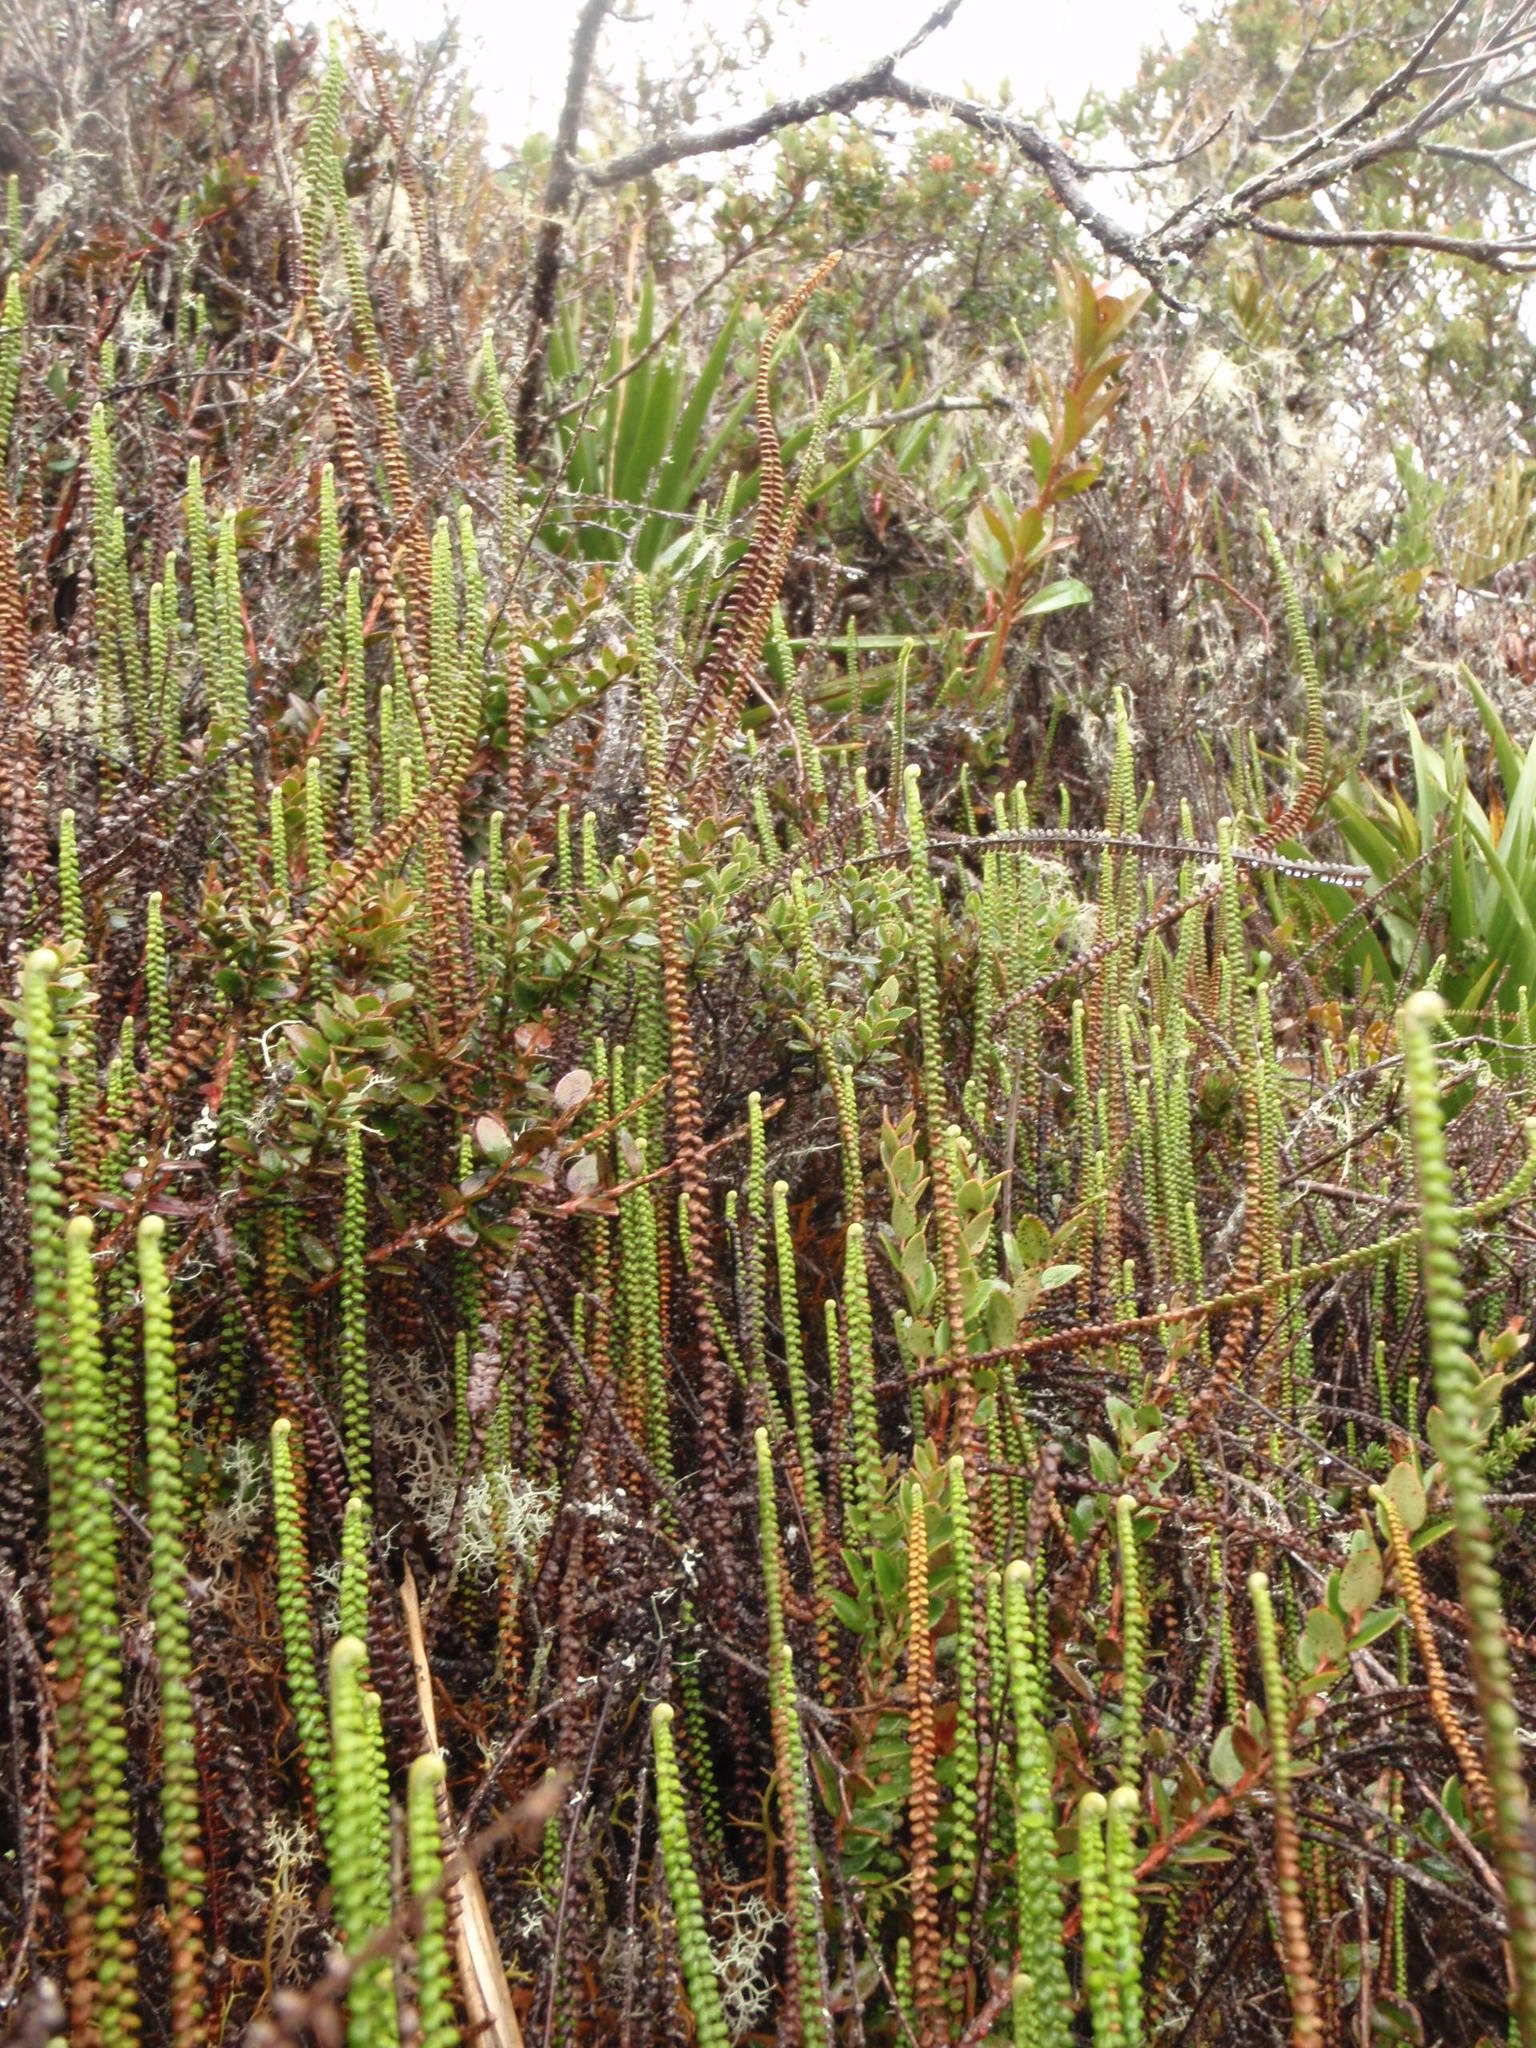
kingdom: Plantae
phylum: Tracheophyta
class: Polypodiopsida
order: Polypodiales
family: Pteridaceae
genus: Jamesonia
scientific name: Jamesonia imbricata
